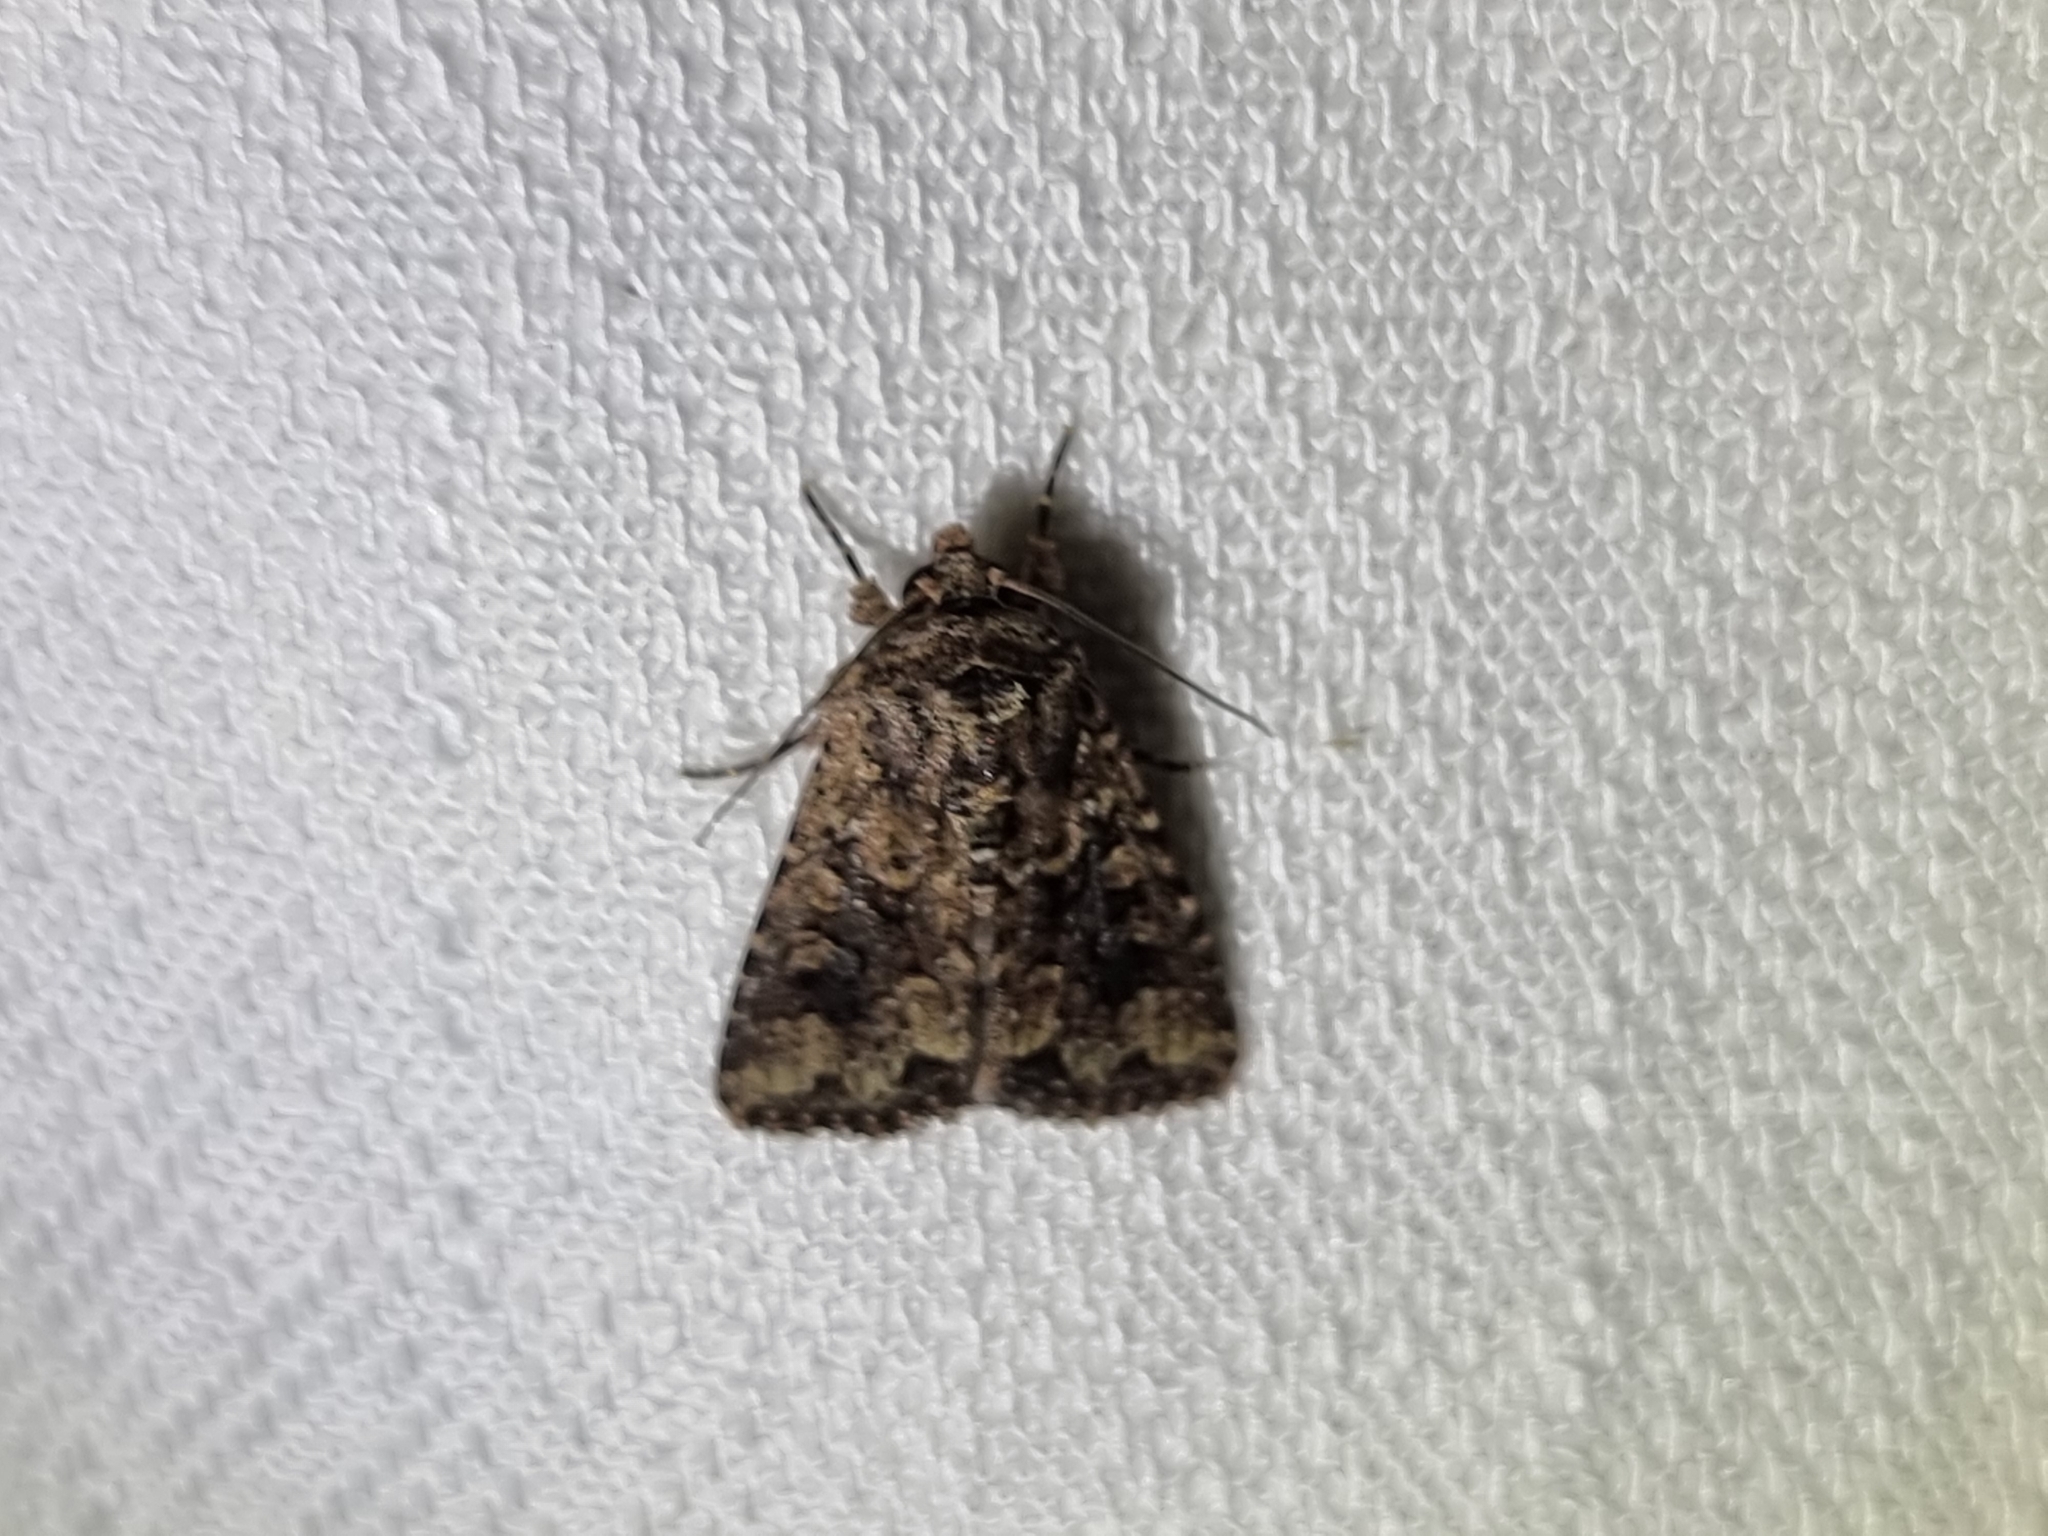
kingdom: Animalia
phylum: Arthropoda
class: Insecta
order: Lepidoptera
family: Noctuidae
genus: Mythimna
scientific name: Mythimna consanguis
